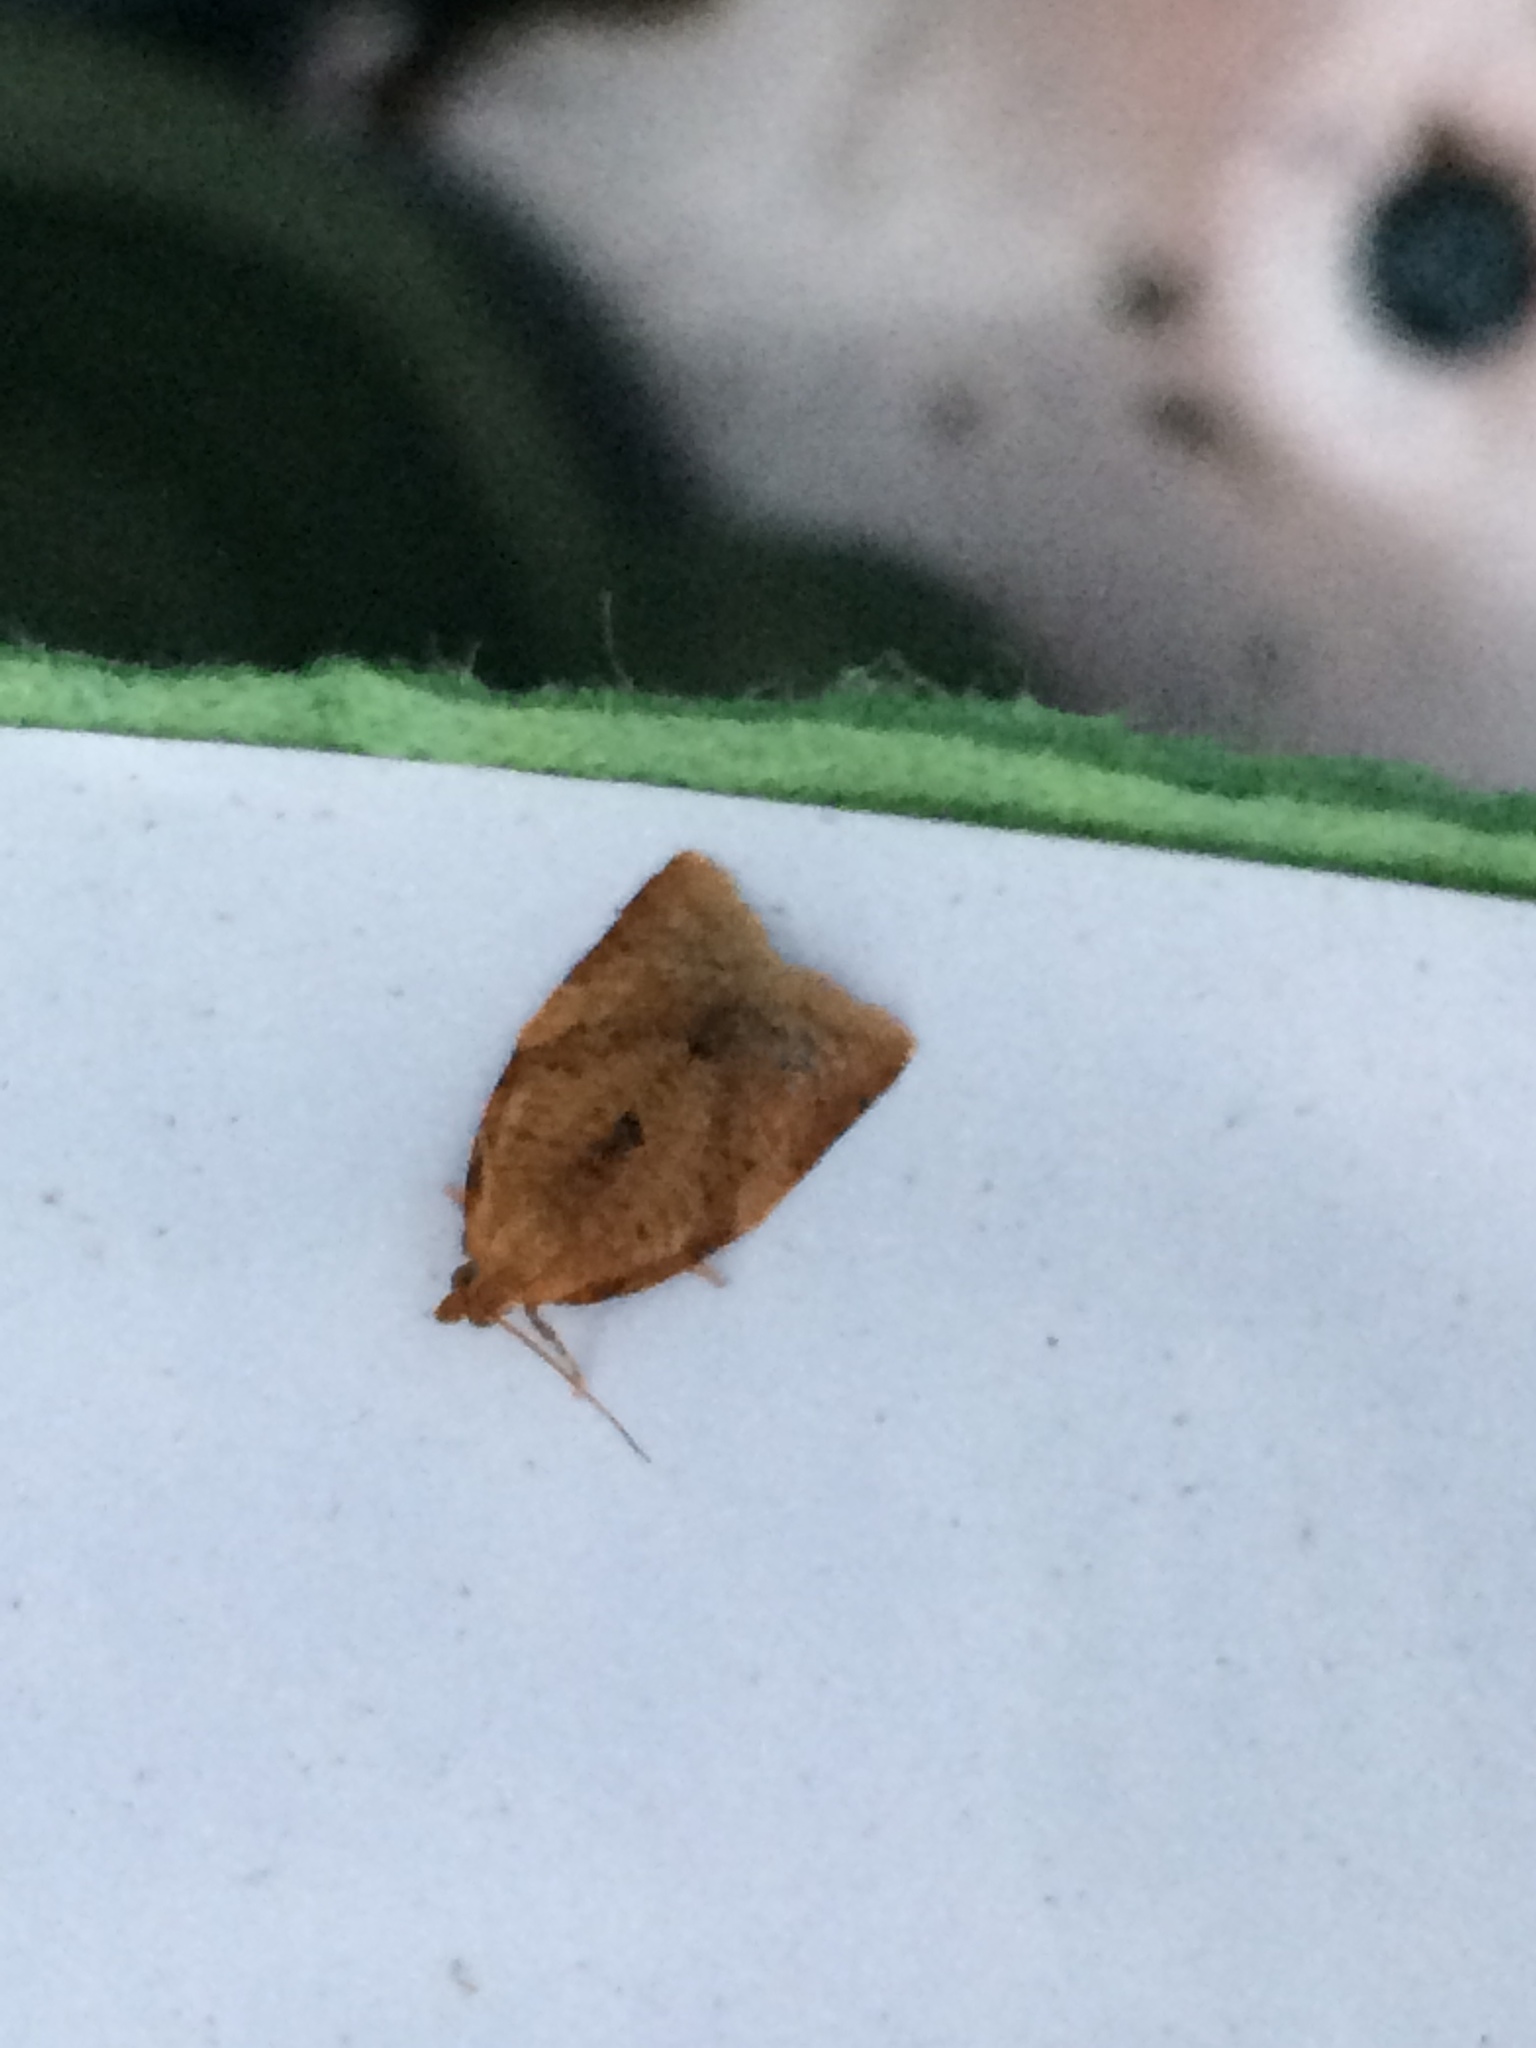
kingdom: Animalia
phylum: Arthropoda
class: Insecta
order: Lepidoptera
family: Tortricidae
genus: Clepsis
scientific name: Clepsis consimilana
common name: Privet tortrix
